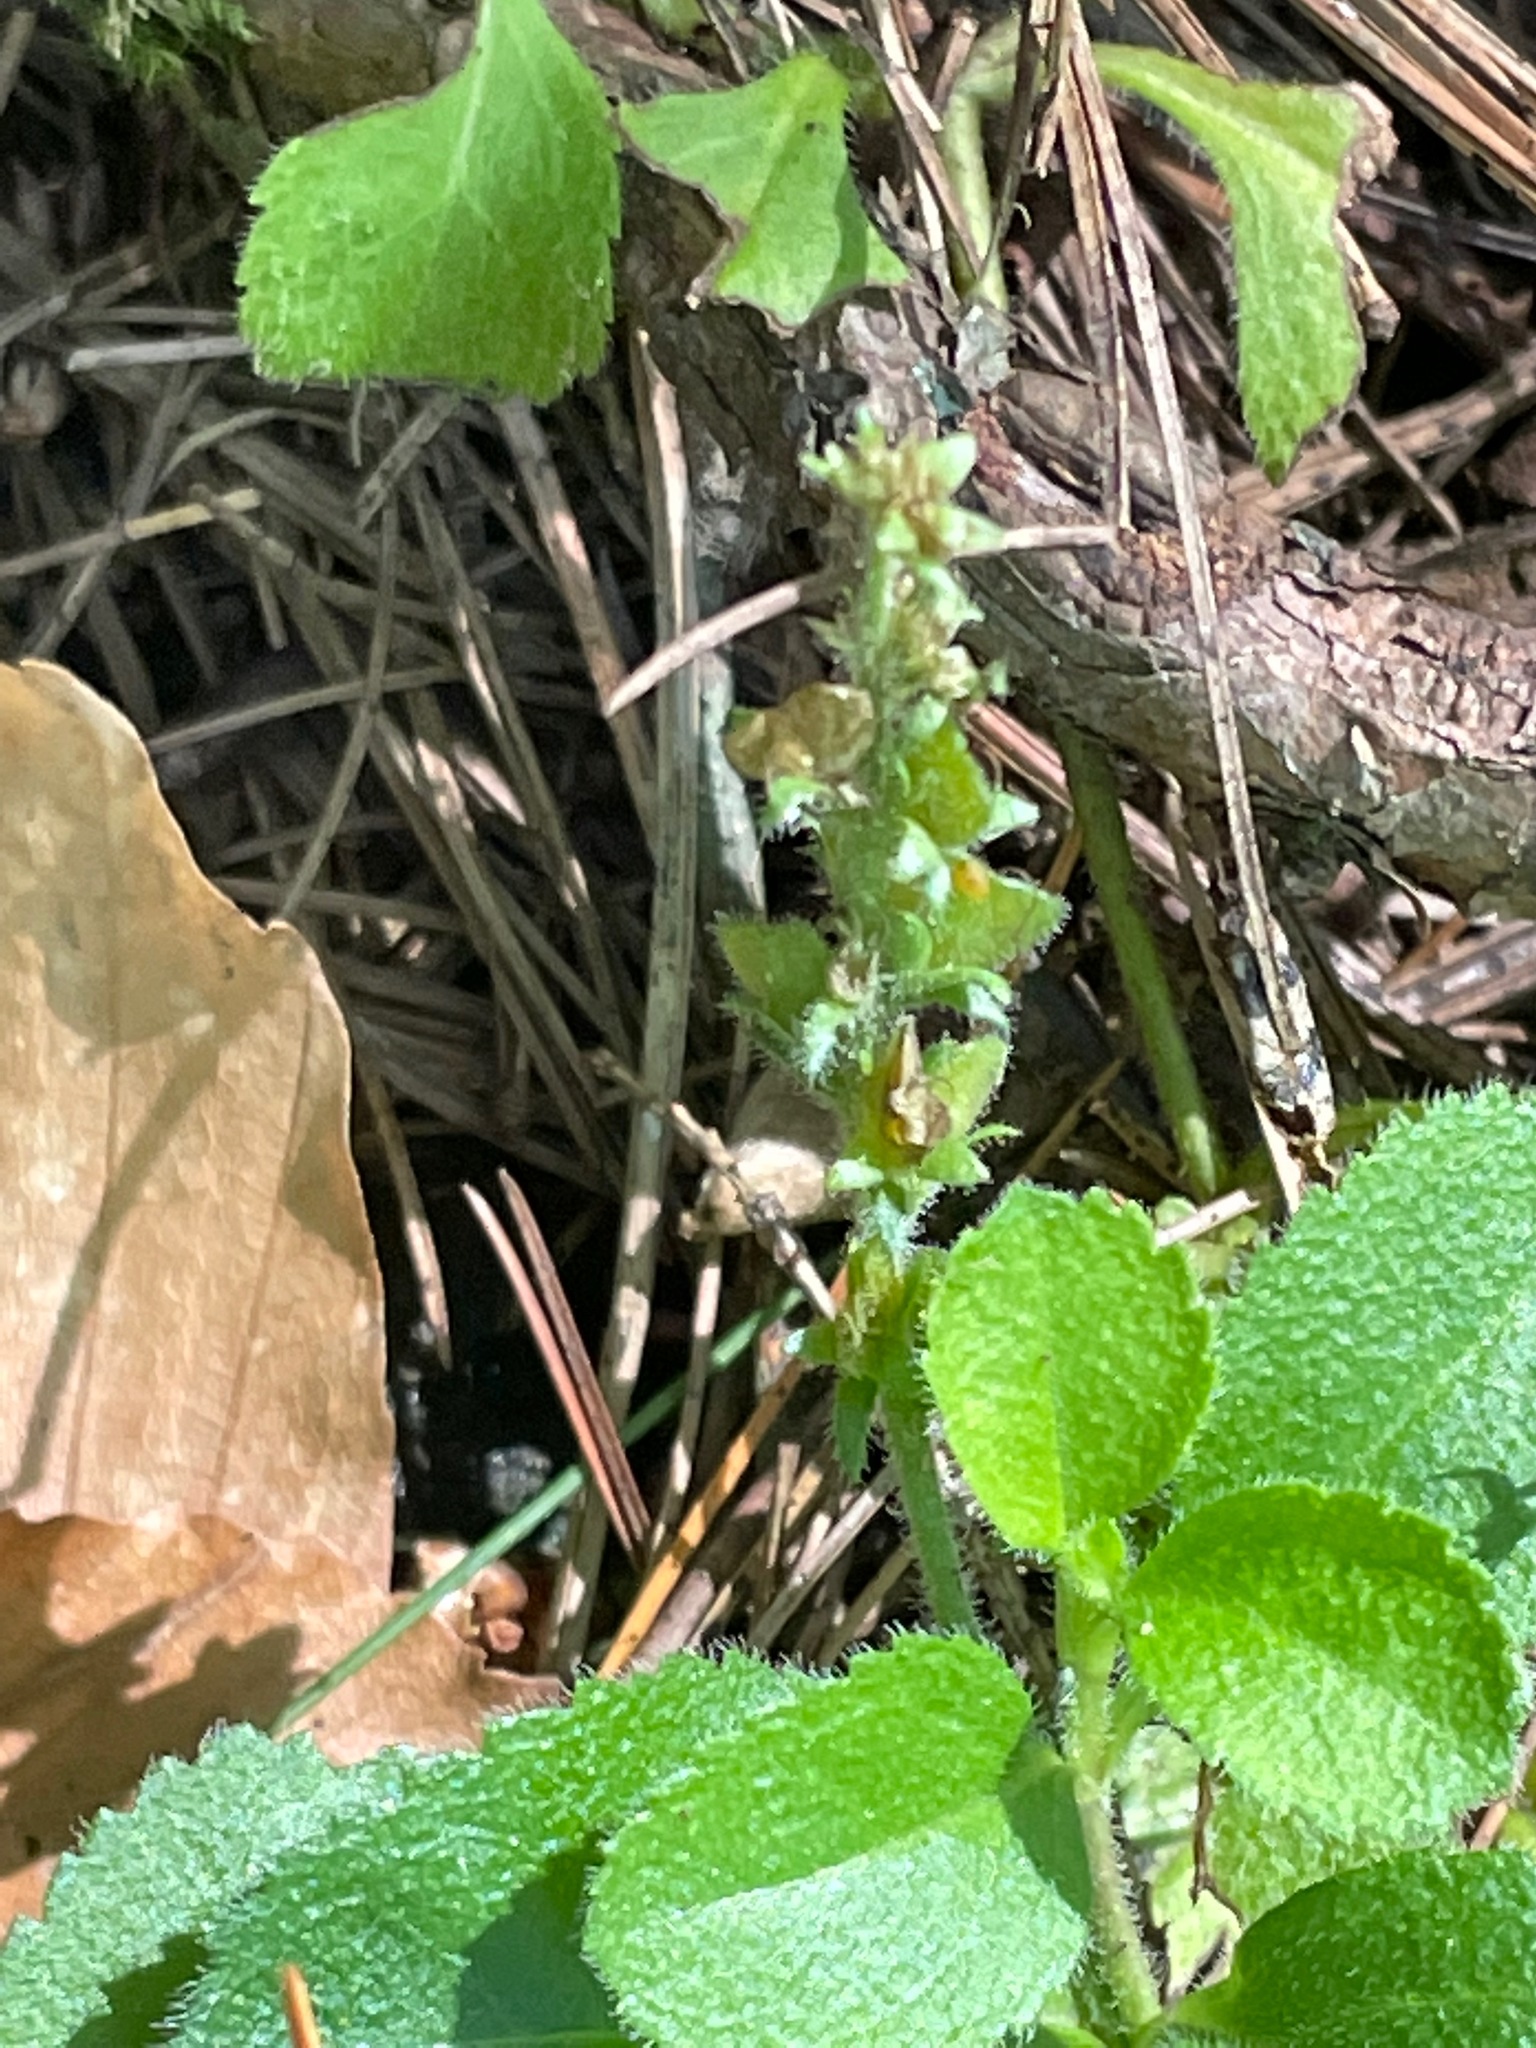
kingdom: Plantae
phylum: Tracheophyta
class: Magnoliopsida
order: Lamiales
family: Plantaginaceae
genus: Veronica
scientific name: Veronica officinalis
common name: Common speedwell
